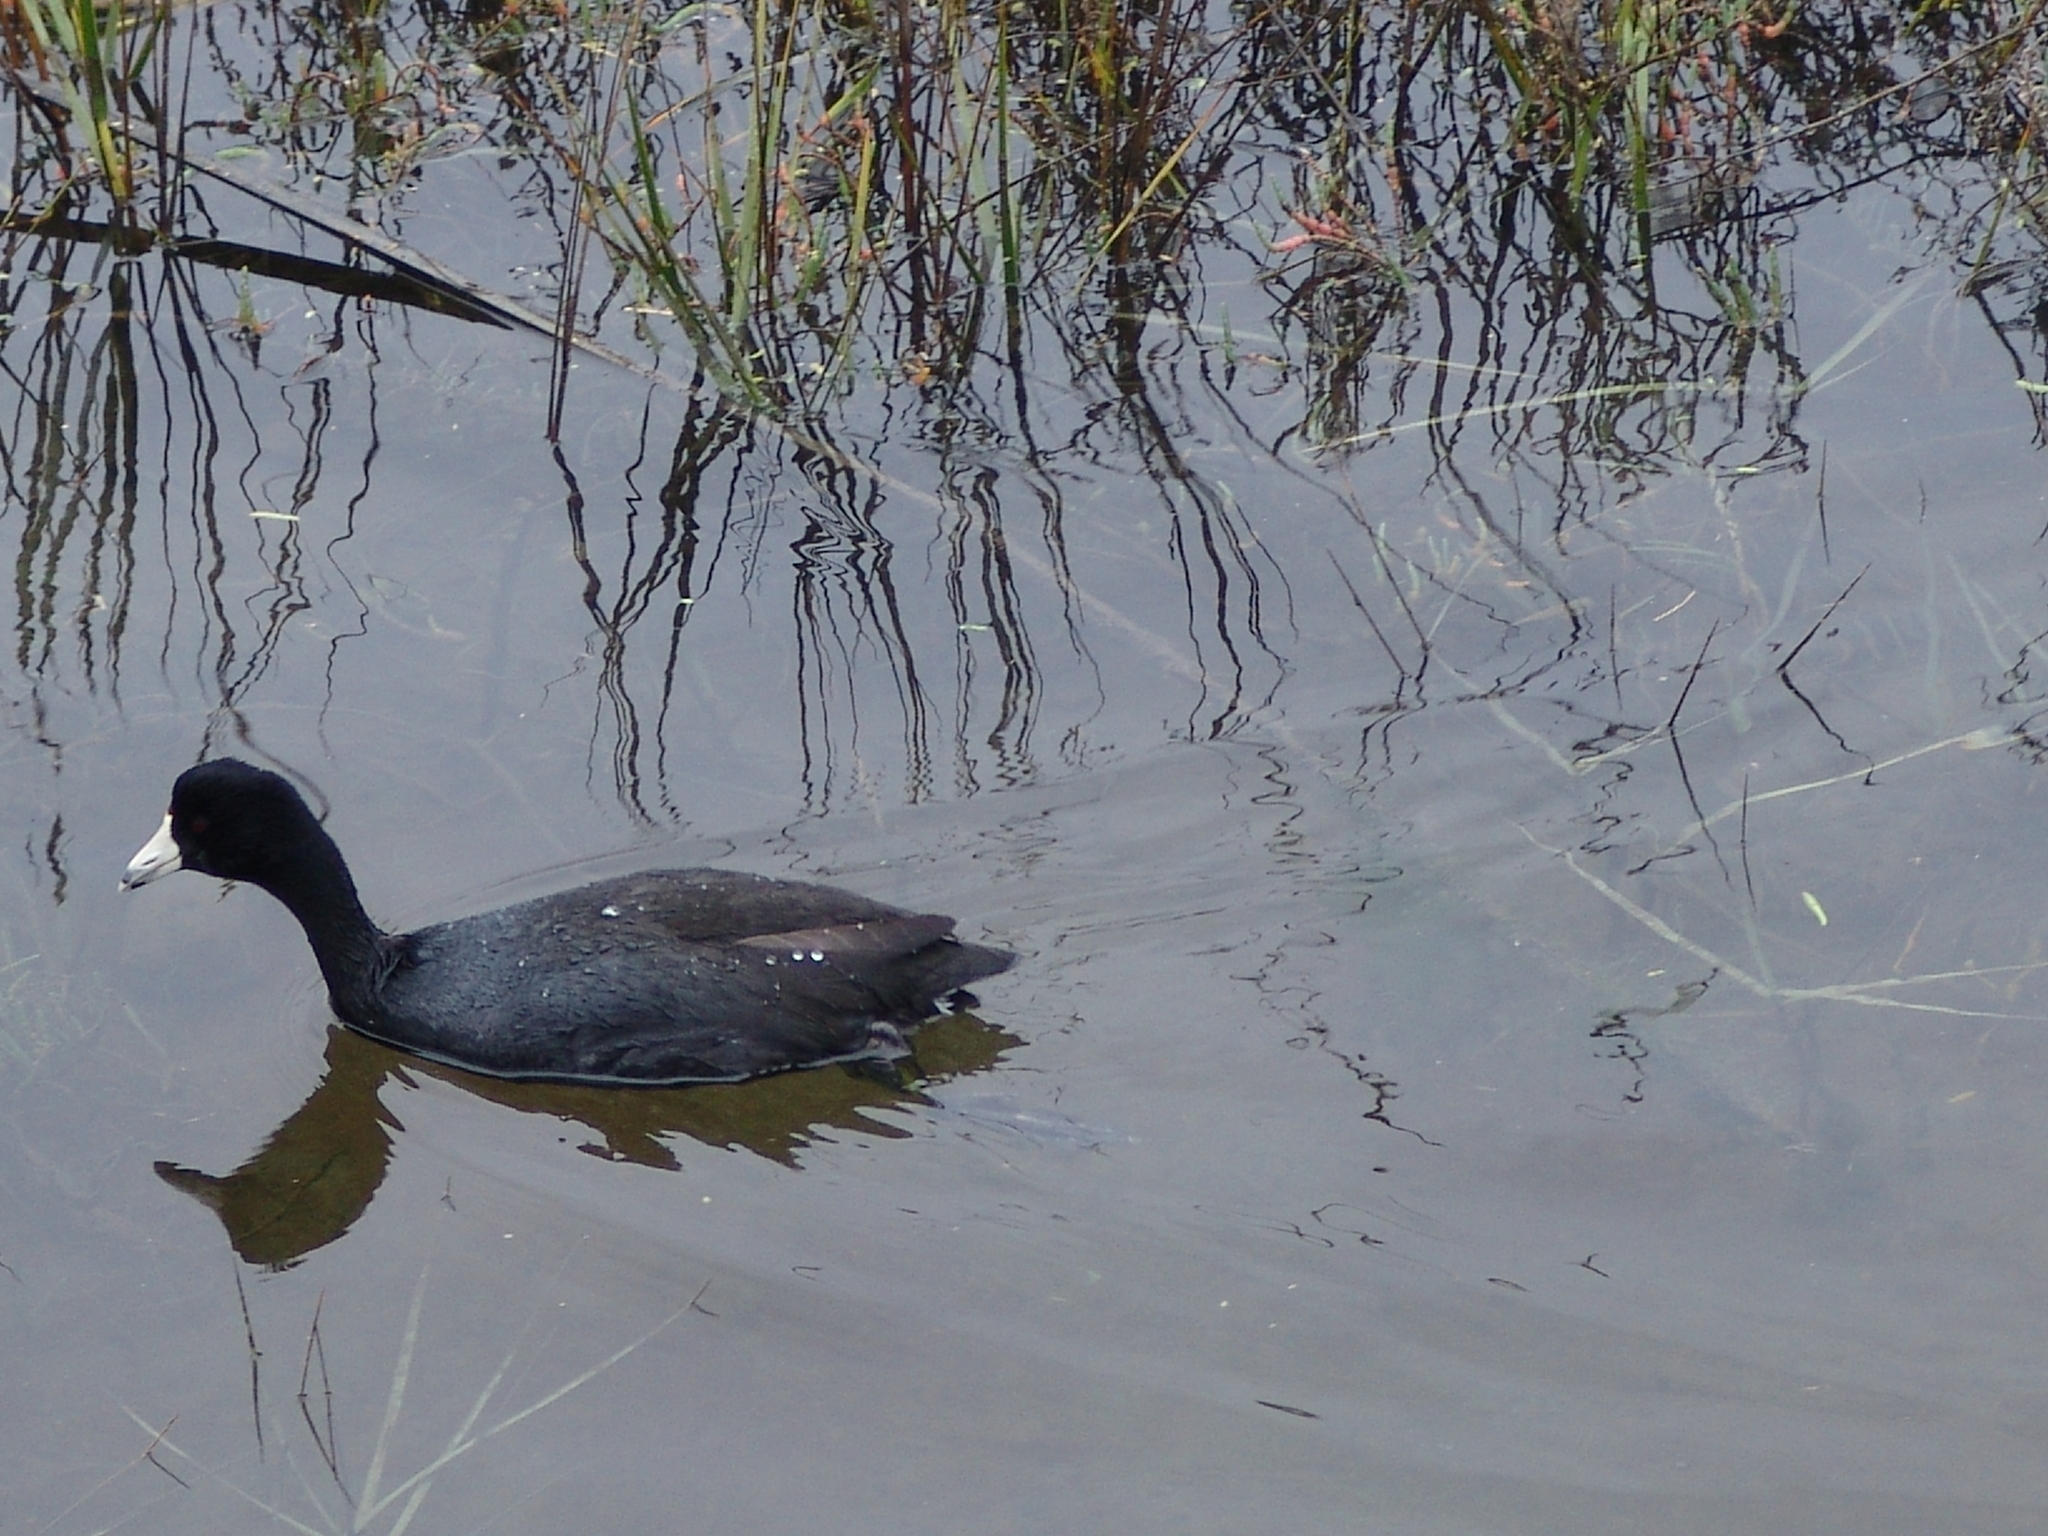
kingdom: Animalia
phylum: Chordata
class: Aves
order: Gruiformes
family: Rallidae
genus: Fulica
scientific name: Fulica americana
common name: American coot
